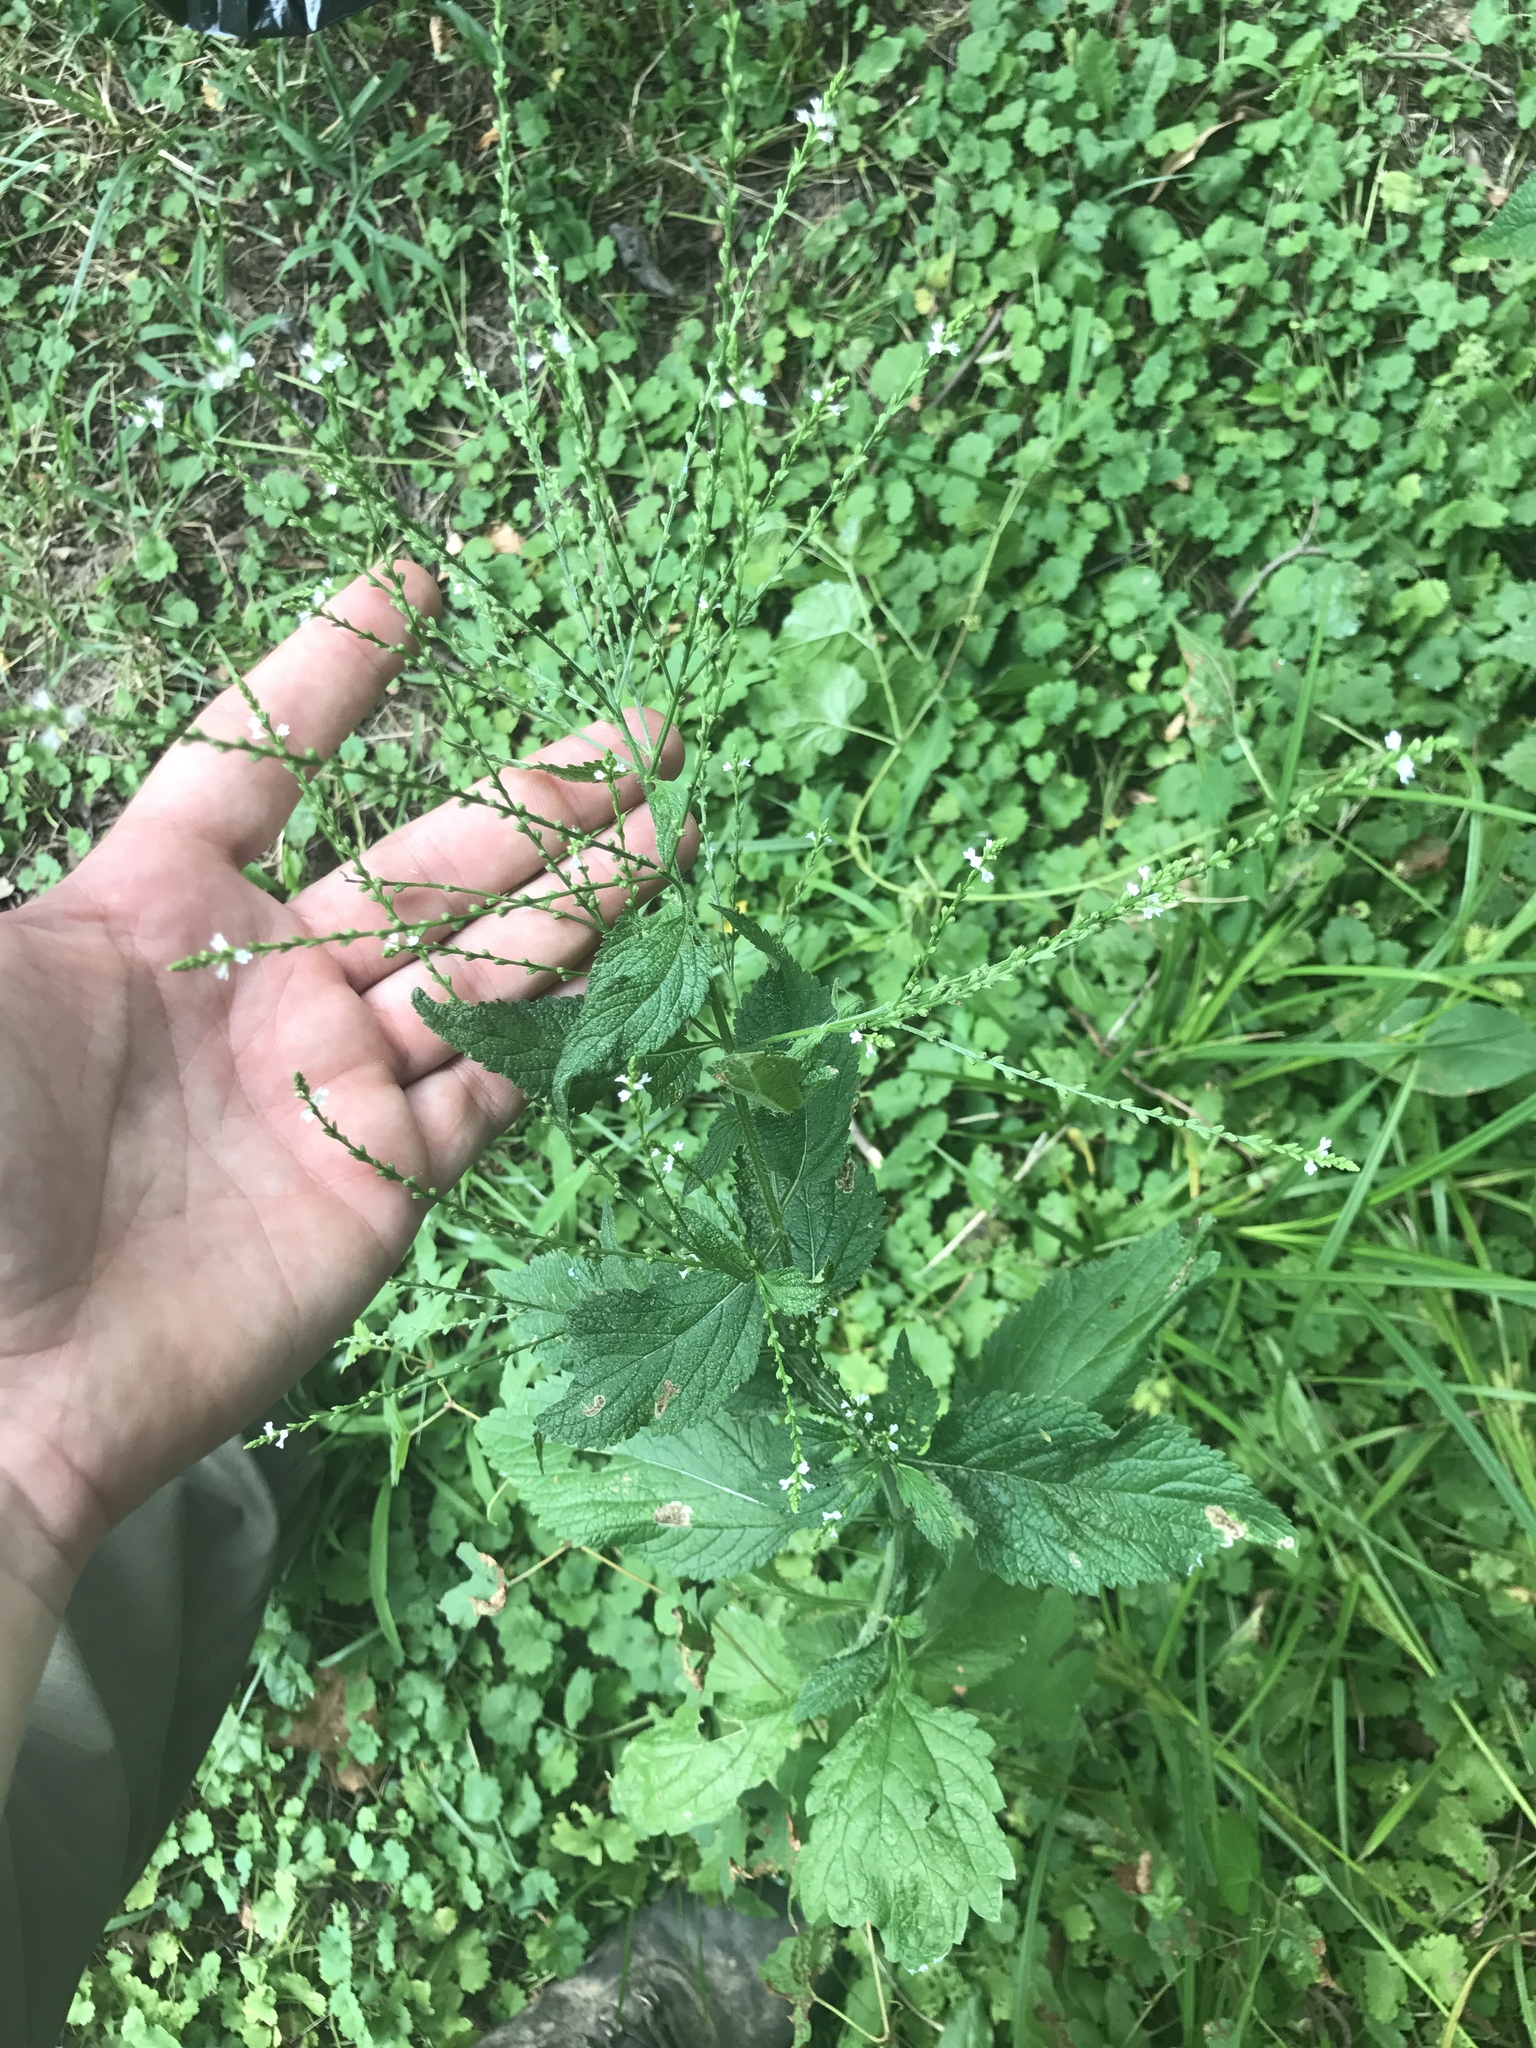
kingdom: Plantae
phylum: Tracheophyta
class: Magnoliopsida
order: Lamiales
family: Verbenaceae
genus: Verbena
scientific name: Verbena urticifolia
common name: Nettle-leaved vervain
